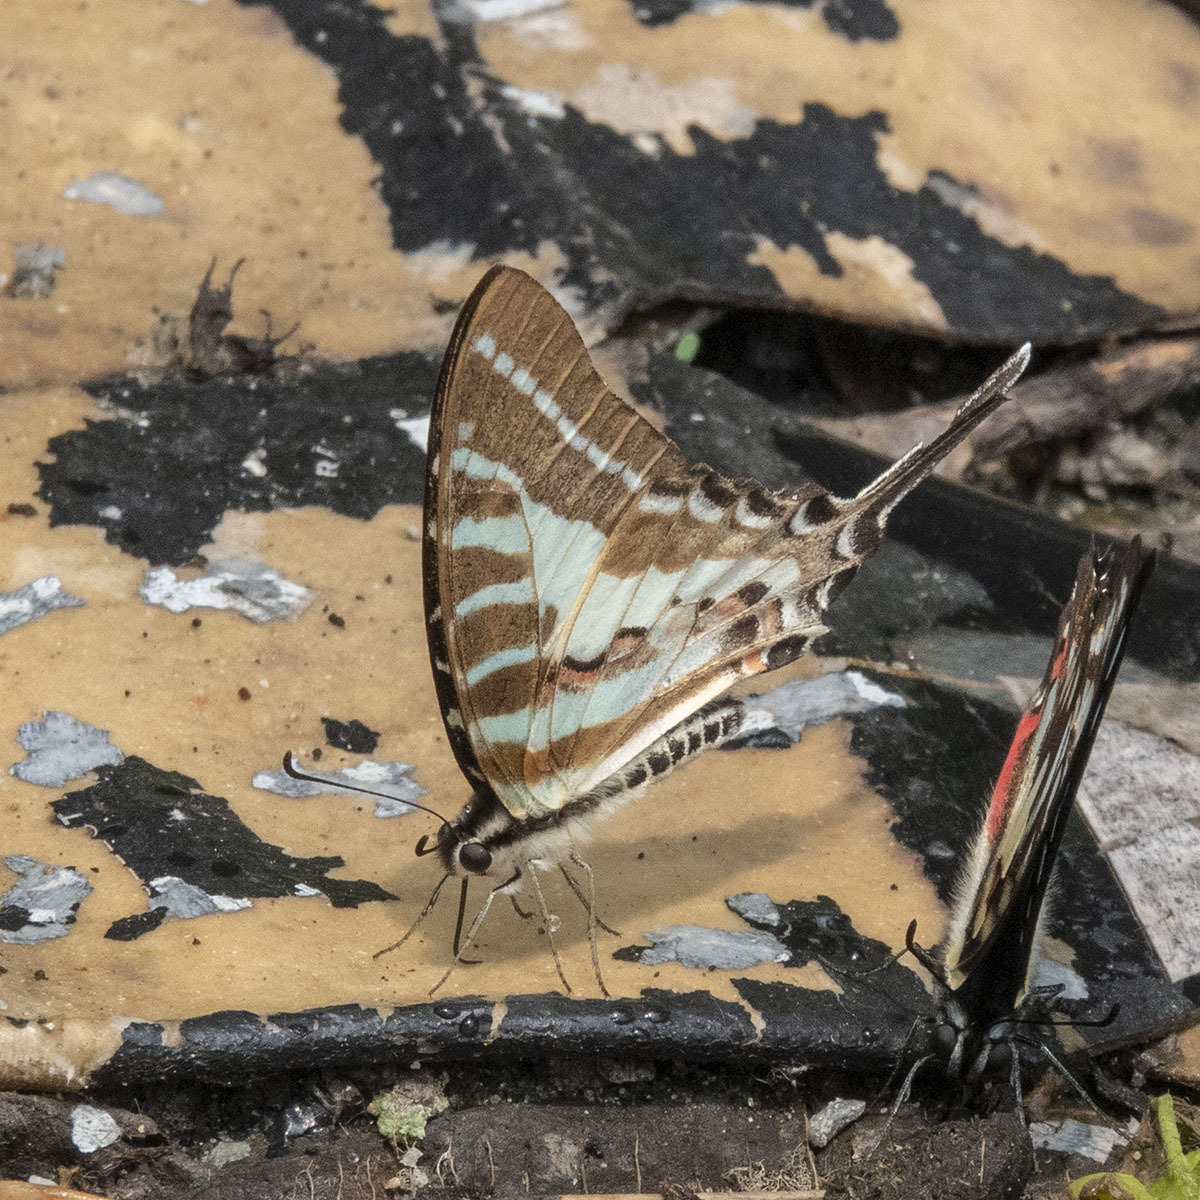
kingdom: Animalia
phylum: Arthropoda
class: Insecta
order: Lepidoptera
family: Papilionidae
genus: Graphium
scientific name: Graphium aristeus
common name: Chain swordtail
